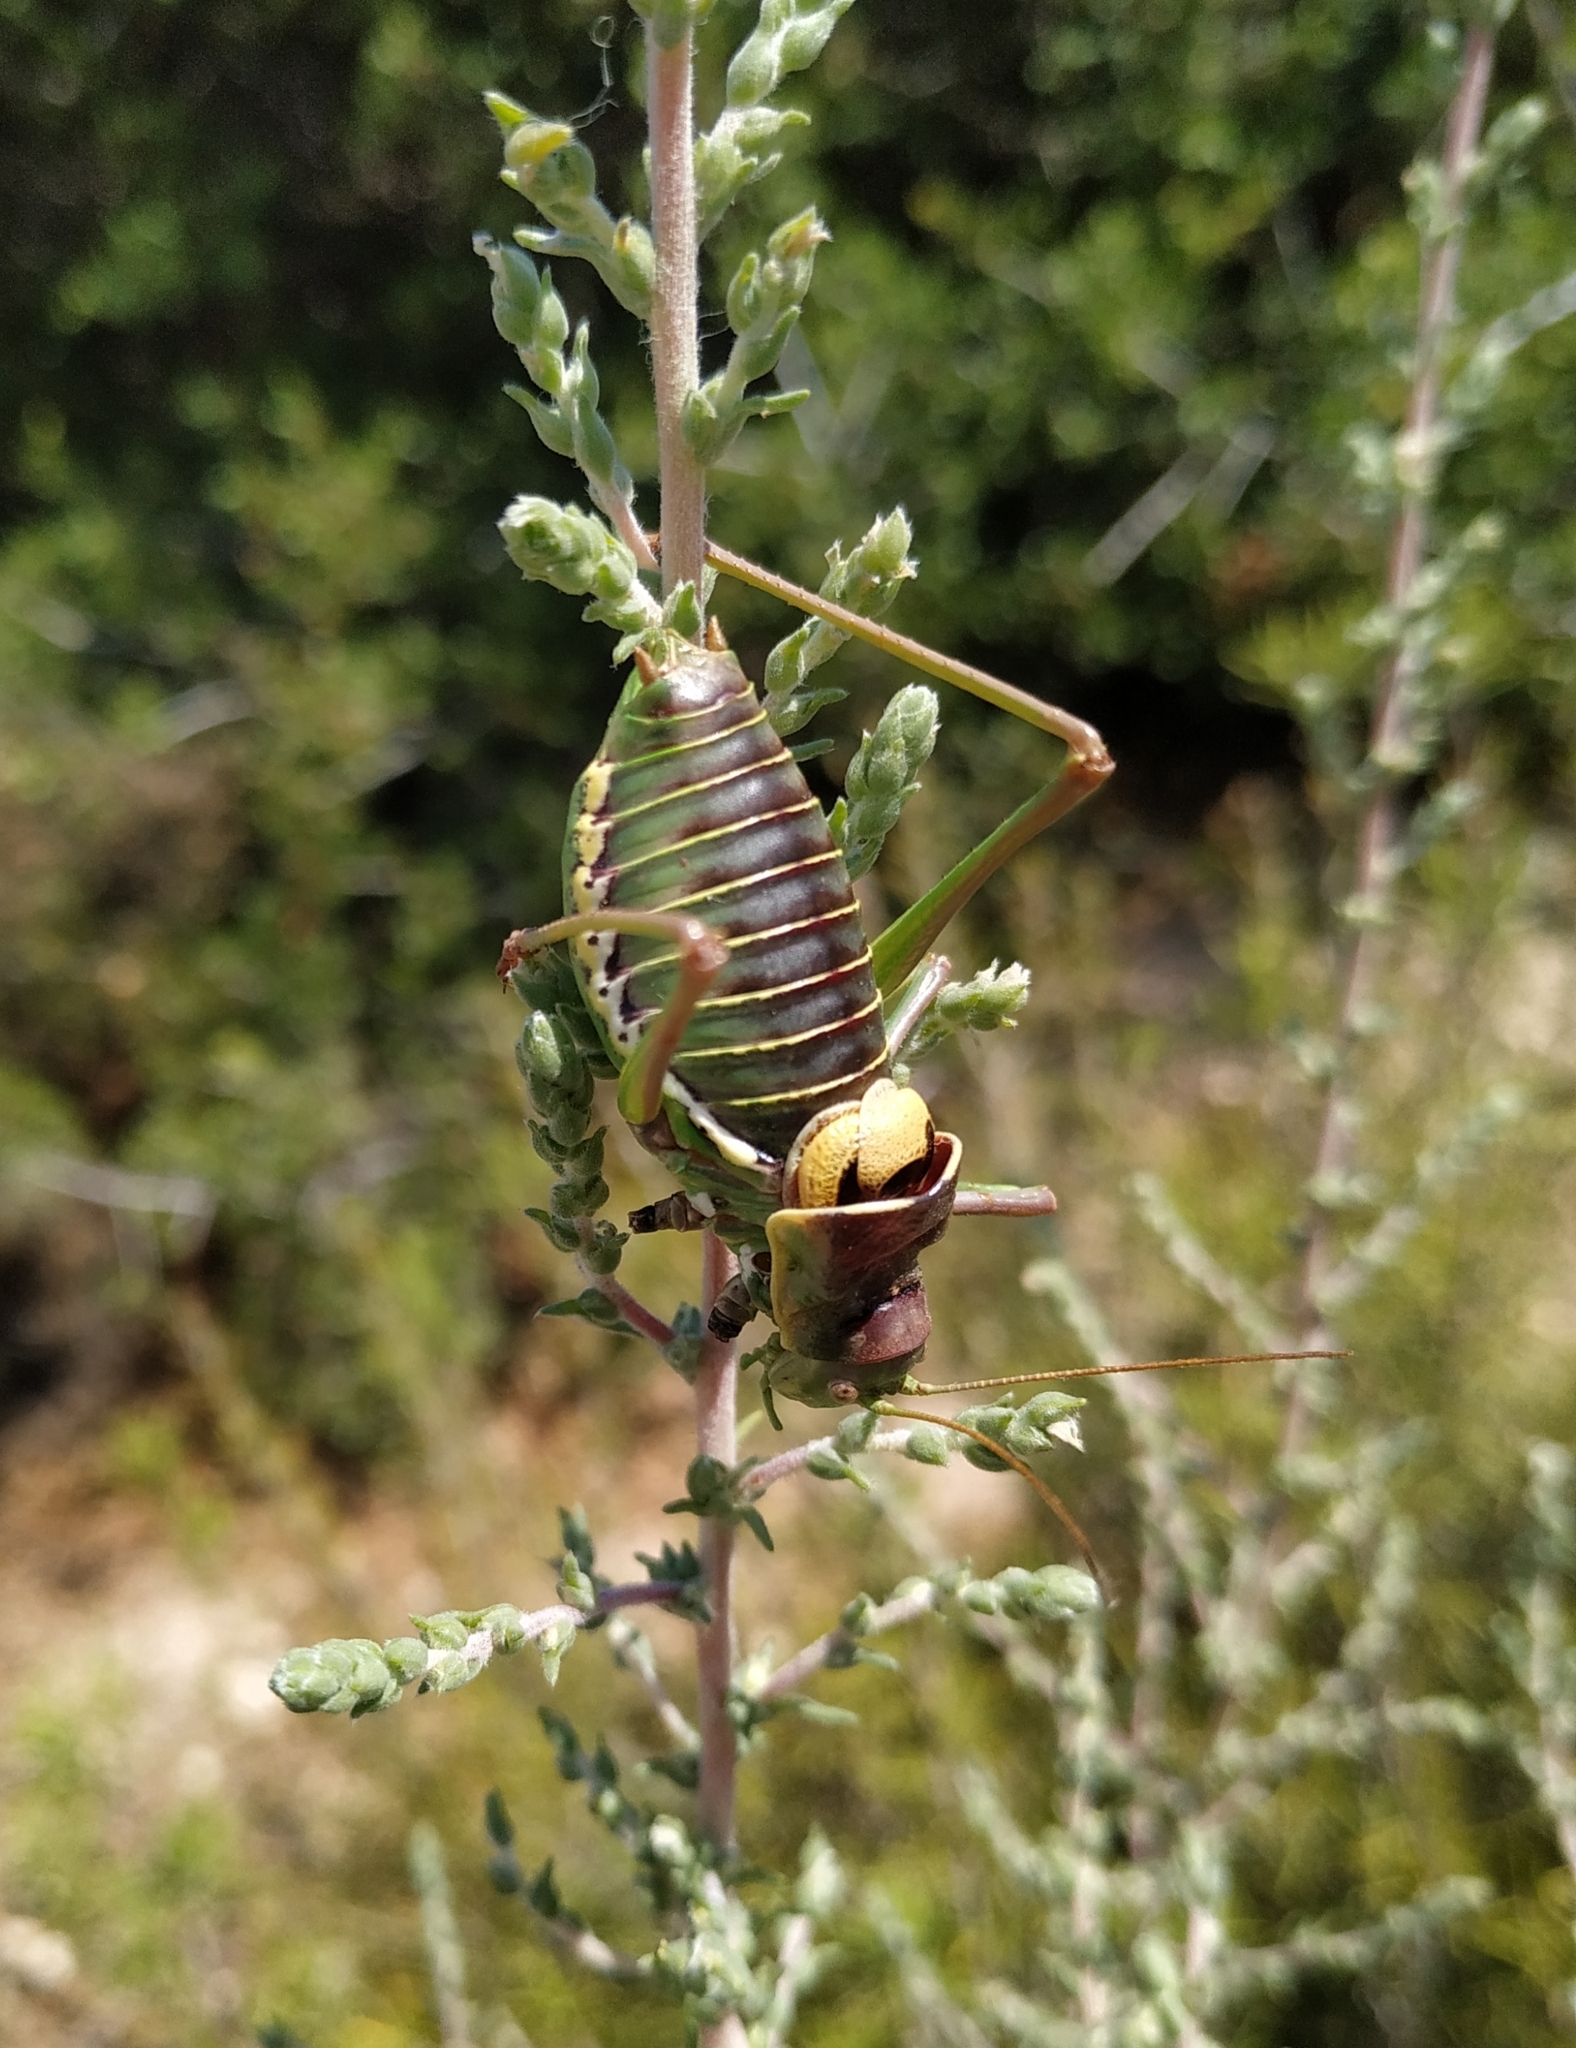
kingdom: Animalia
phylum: Arthropoda
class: Insecta
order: Orthoptera
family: Tettigoniidae
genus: Parasteropleurus
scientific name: Parasteropleurus perezii
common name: Perez's saddle bush-cricke
